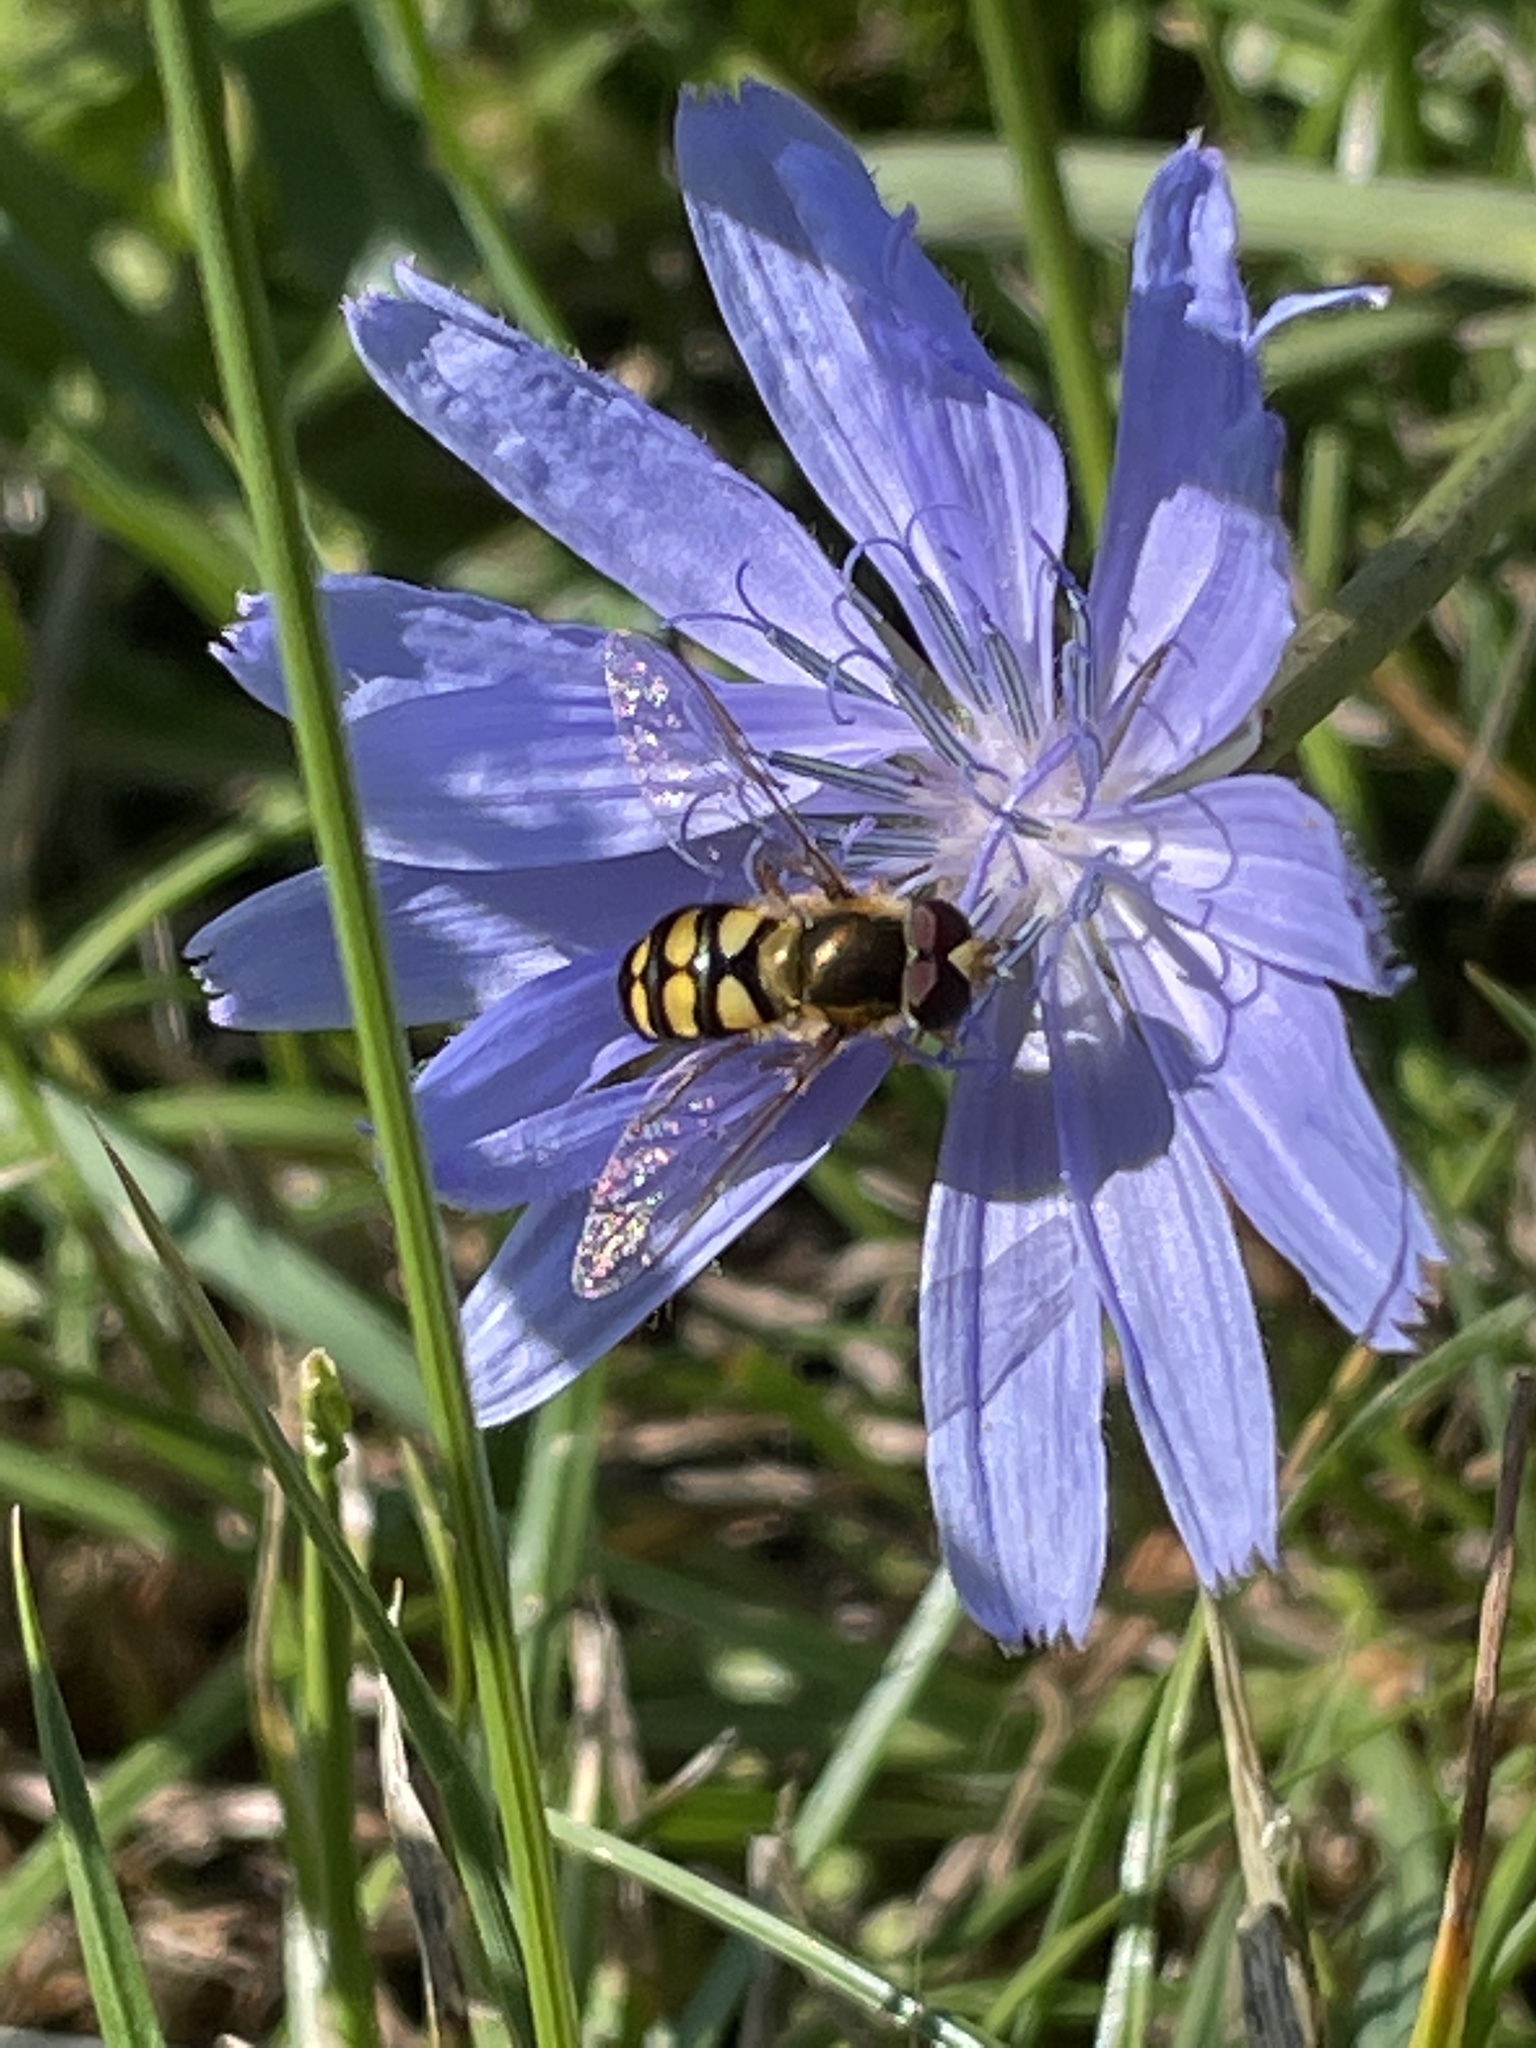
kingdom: Animalia
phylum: Arthropoda
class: Insecta
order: Diptera
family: Syrphidae
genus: Eupeodes
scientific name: Eupeodes
